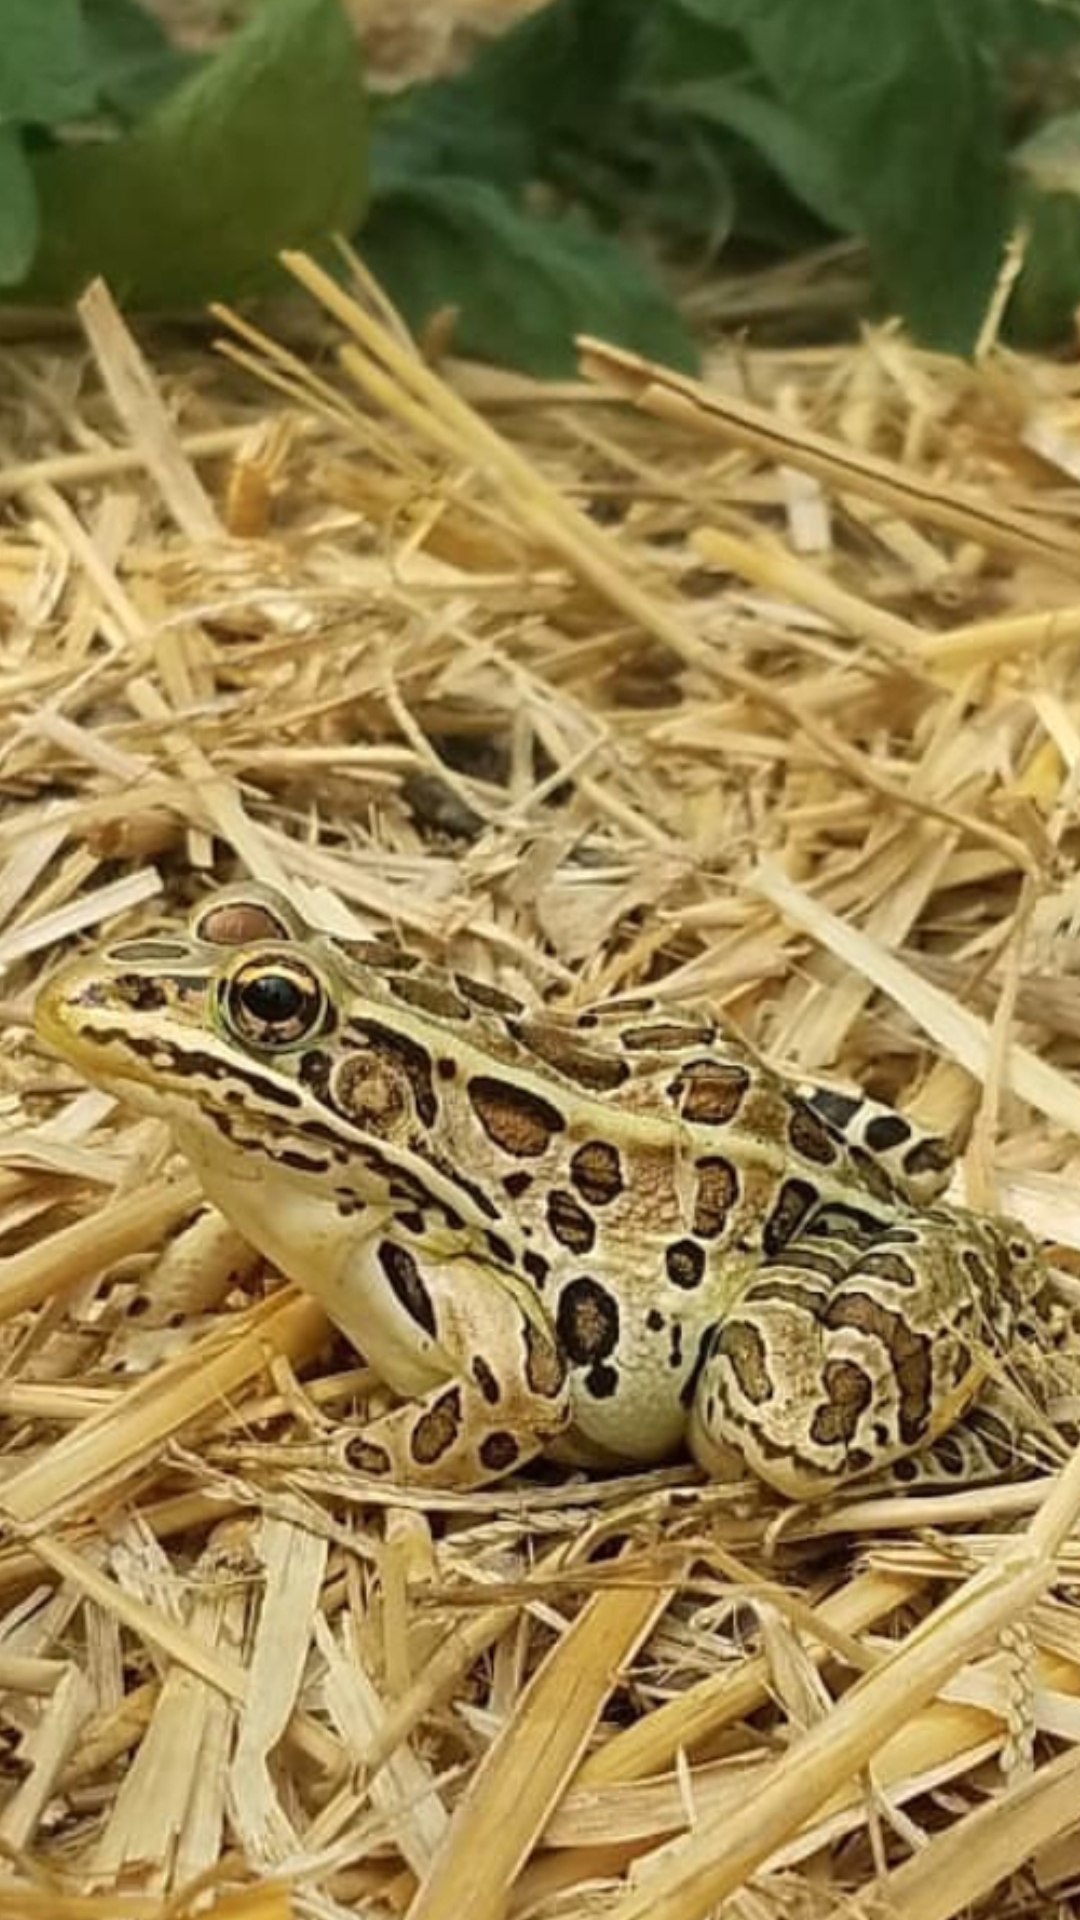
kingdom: Animalia
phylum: Chordata
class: Amphibia
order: Anura
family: Ranidae
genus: Lithobates
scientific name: Lithobates pipiens
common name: Northern leopard frog
